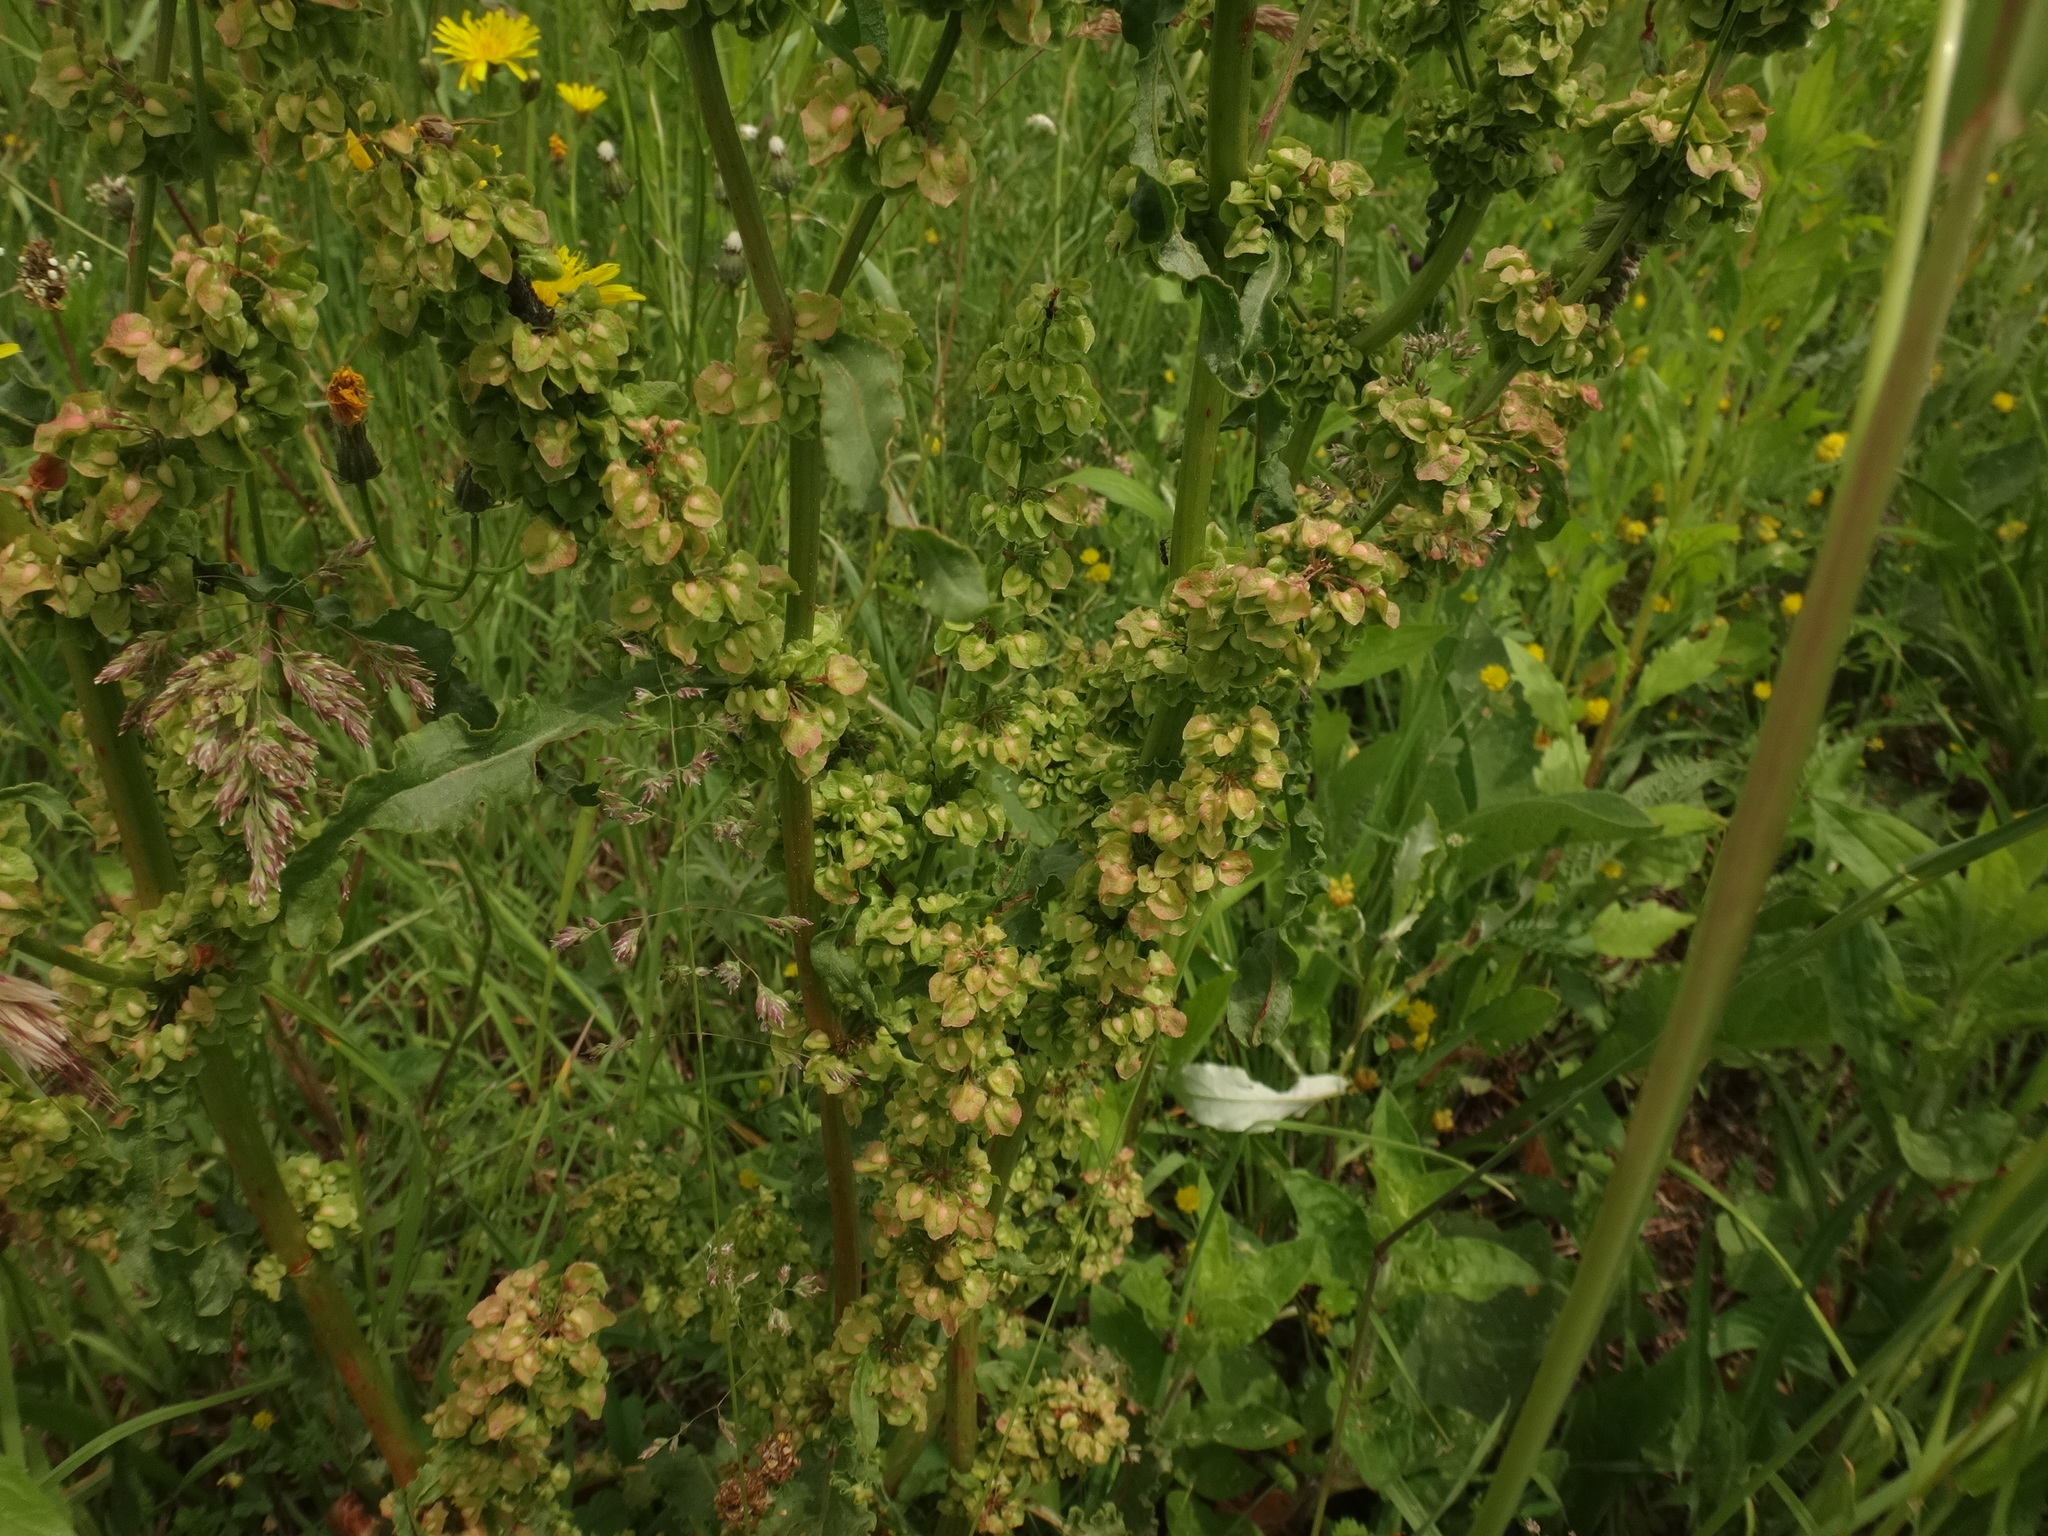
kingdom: Plantae
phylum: Tracheophyta
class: Magnoliopsida
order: Caryophyllales
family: Polygonaceae
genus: Rumex
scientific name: Rumex crispus
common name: Curled dock
